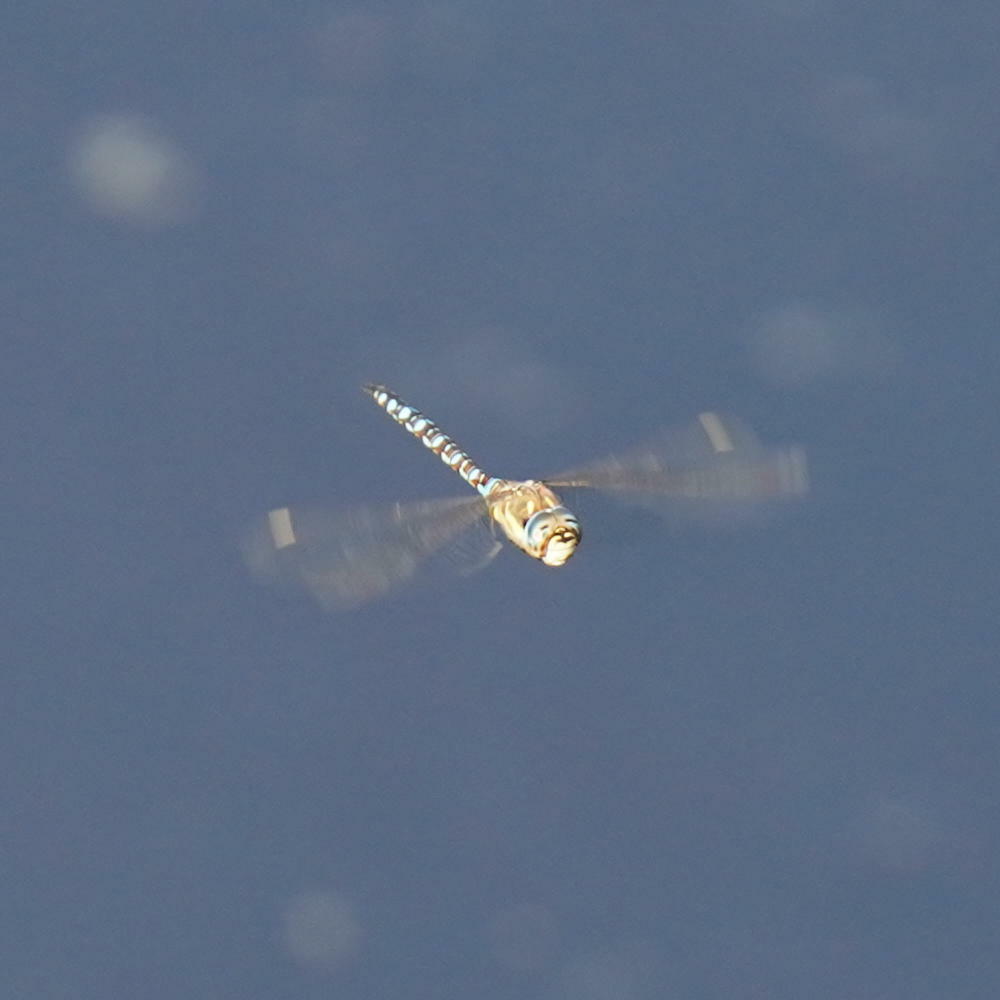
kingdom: Animalia
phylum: Arthropoda
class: Insecta
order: Odonata
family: Aeshnidae
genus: Aeshna
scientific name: Aeshna mixta
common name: Migrant hawker
